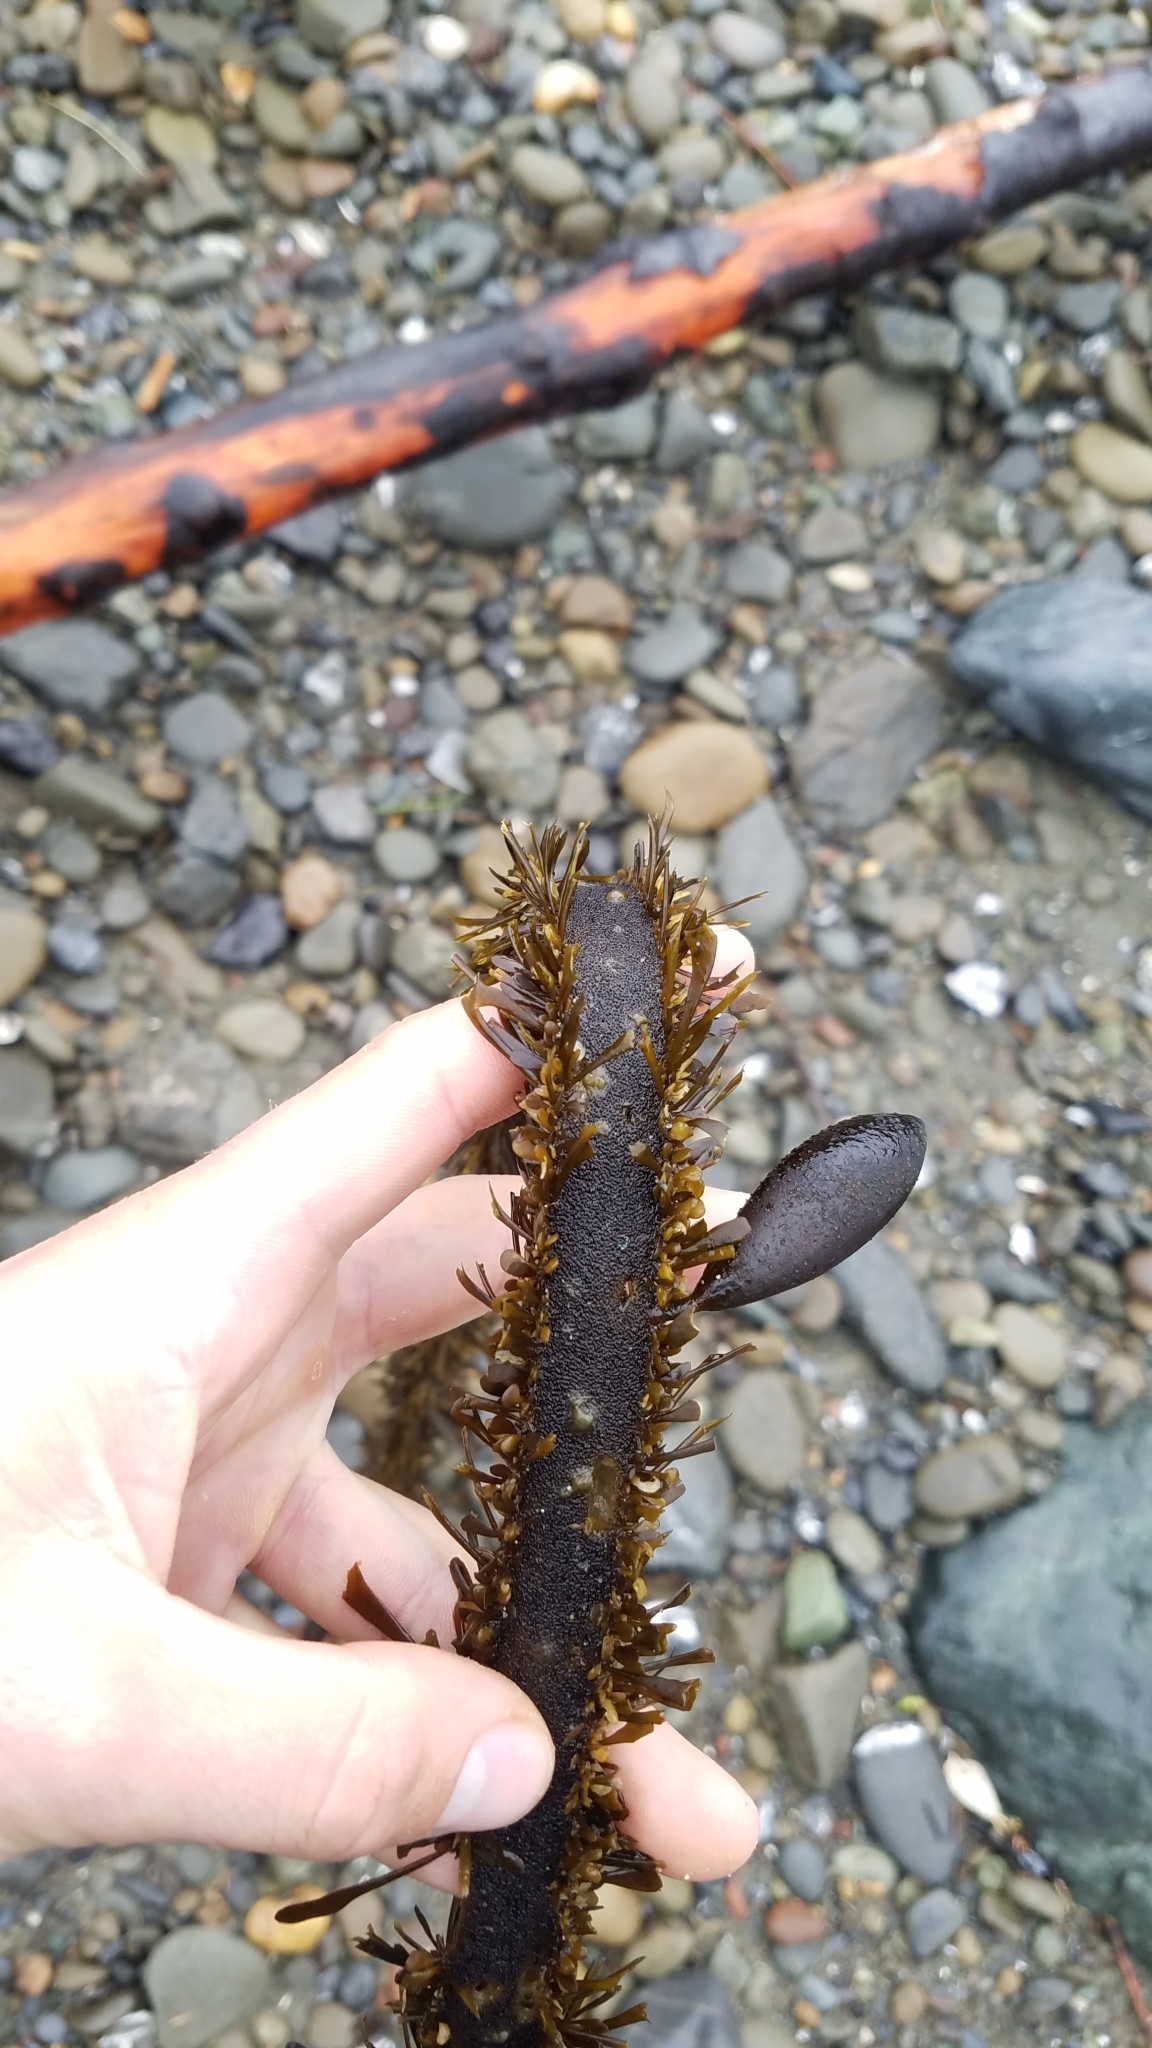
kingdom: Chromista
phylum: Ochrophyta
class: Phaeophyceae
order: Laminariales
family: Lessoniaceae
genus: Egregia
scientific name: Egregia menziesii
